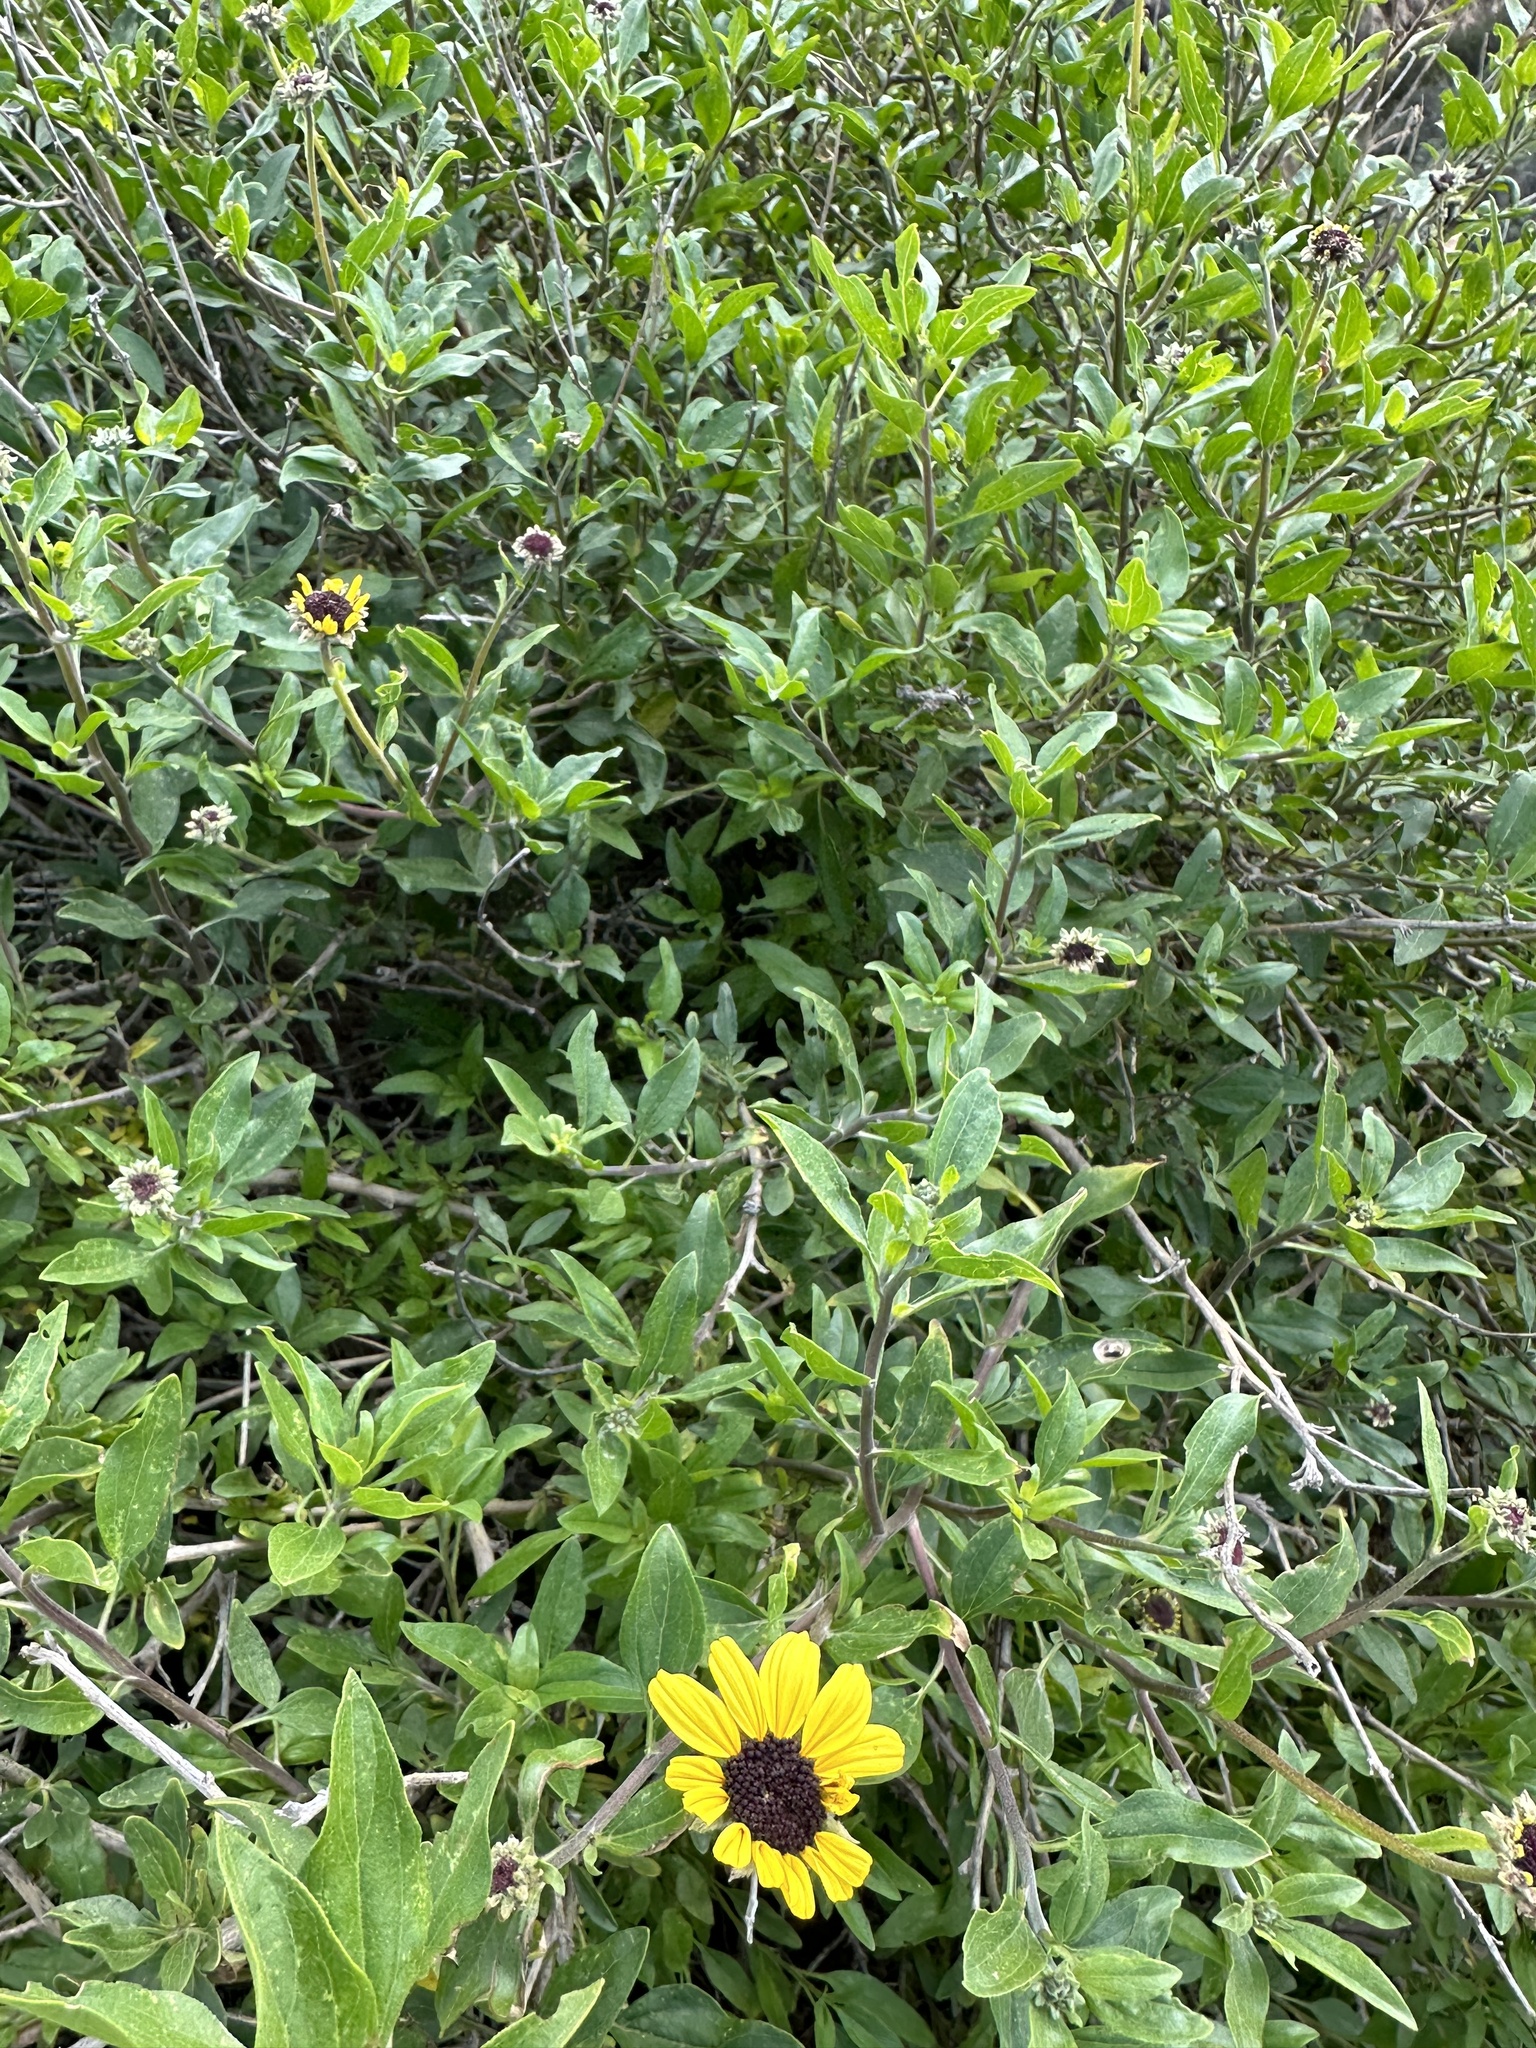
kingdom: Plantae
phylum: Tracheophyta
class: Magnoliopsida
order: Asterales
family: Asteraceae
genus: Encelia
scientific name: Encelia californica
